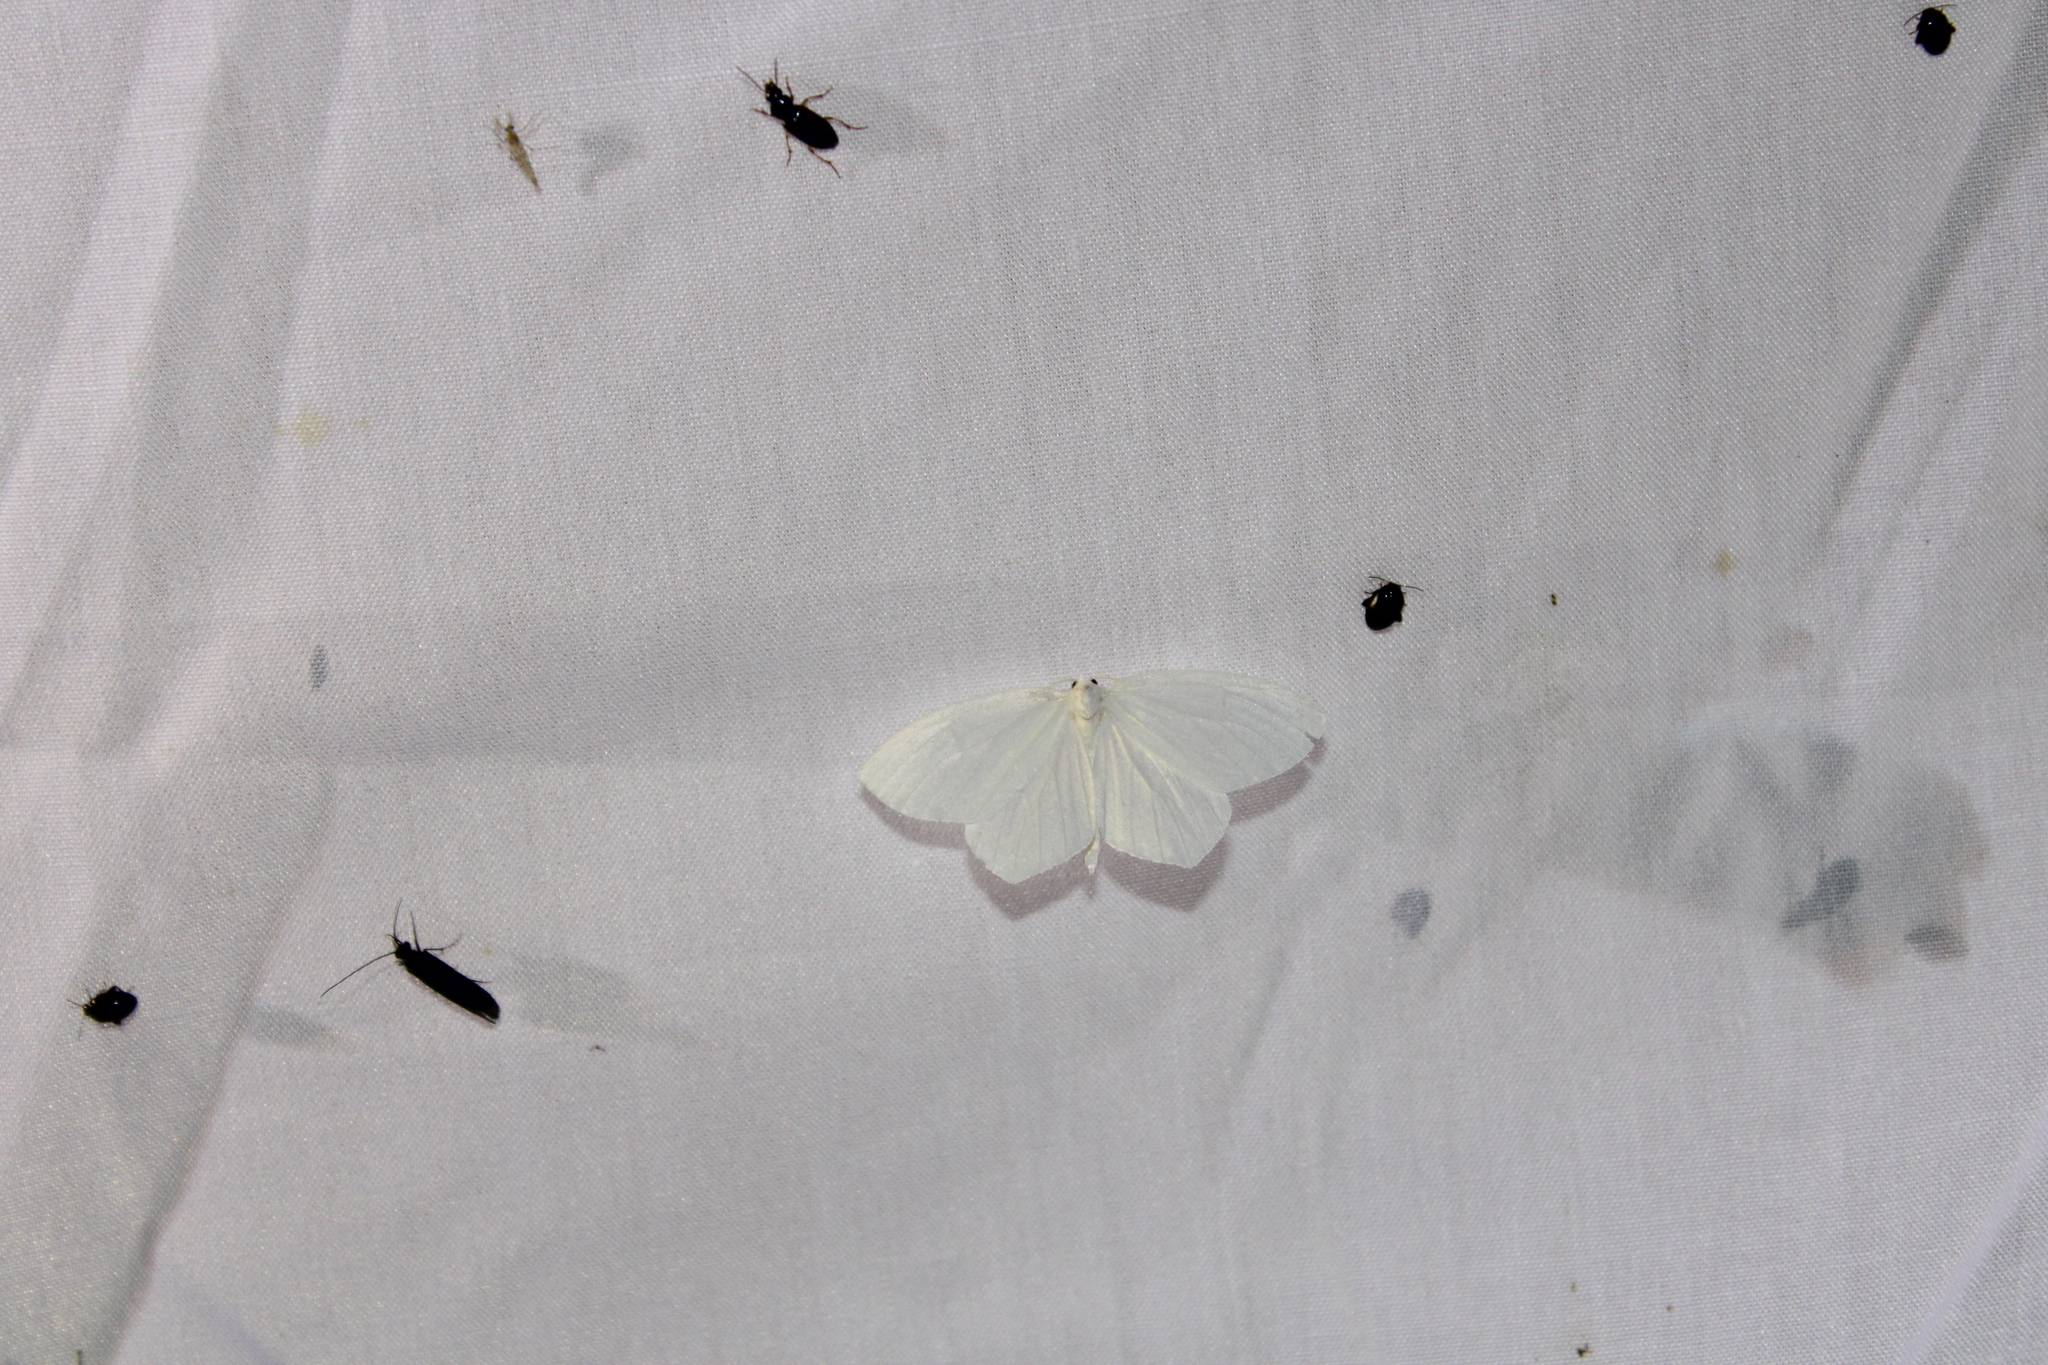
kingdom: Animalia
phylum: Arthropoda
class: Insecta
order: Lepidoptera
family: Geometridae
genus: Eugonobapta
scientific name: Eugonobapta nivosaria
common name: Snowy geometer
